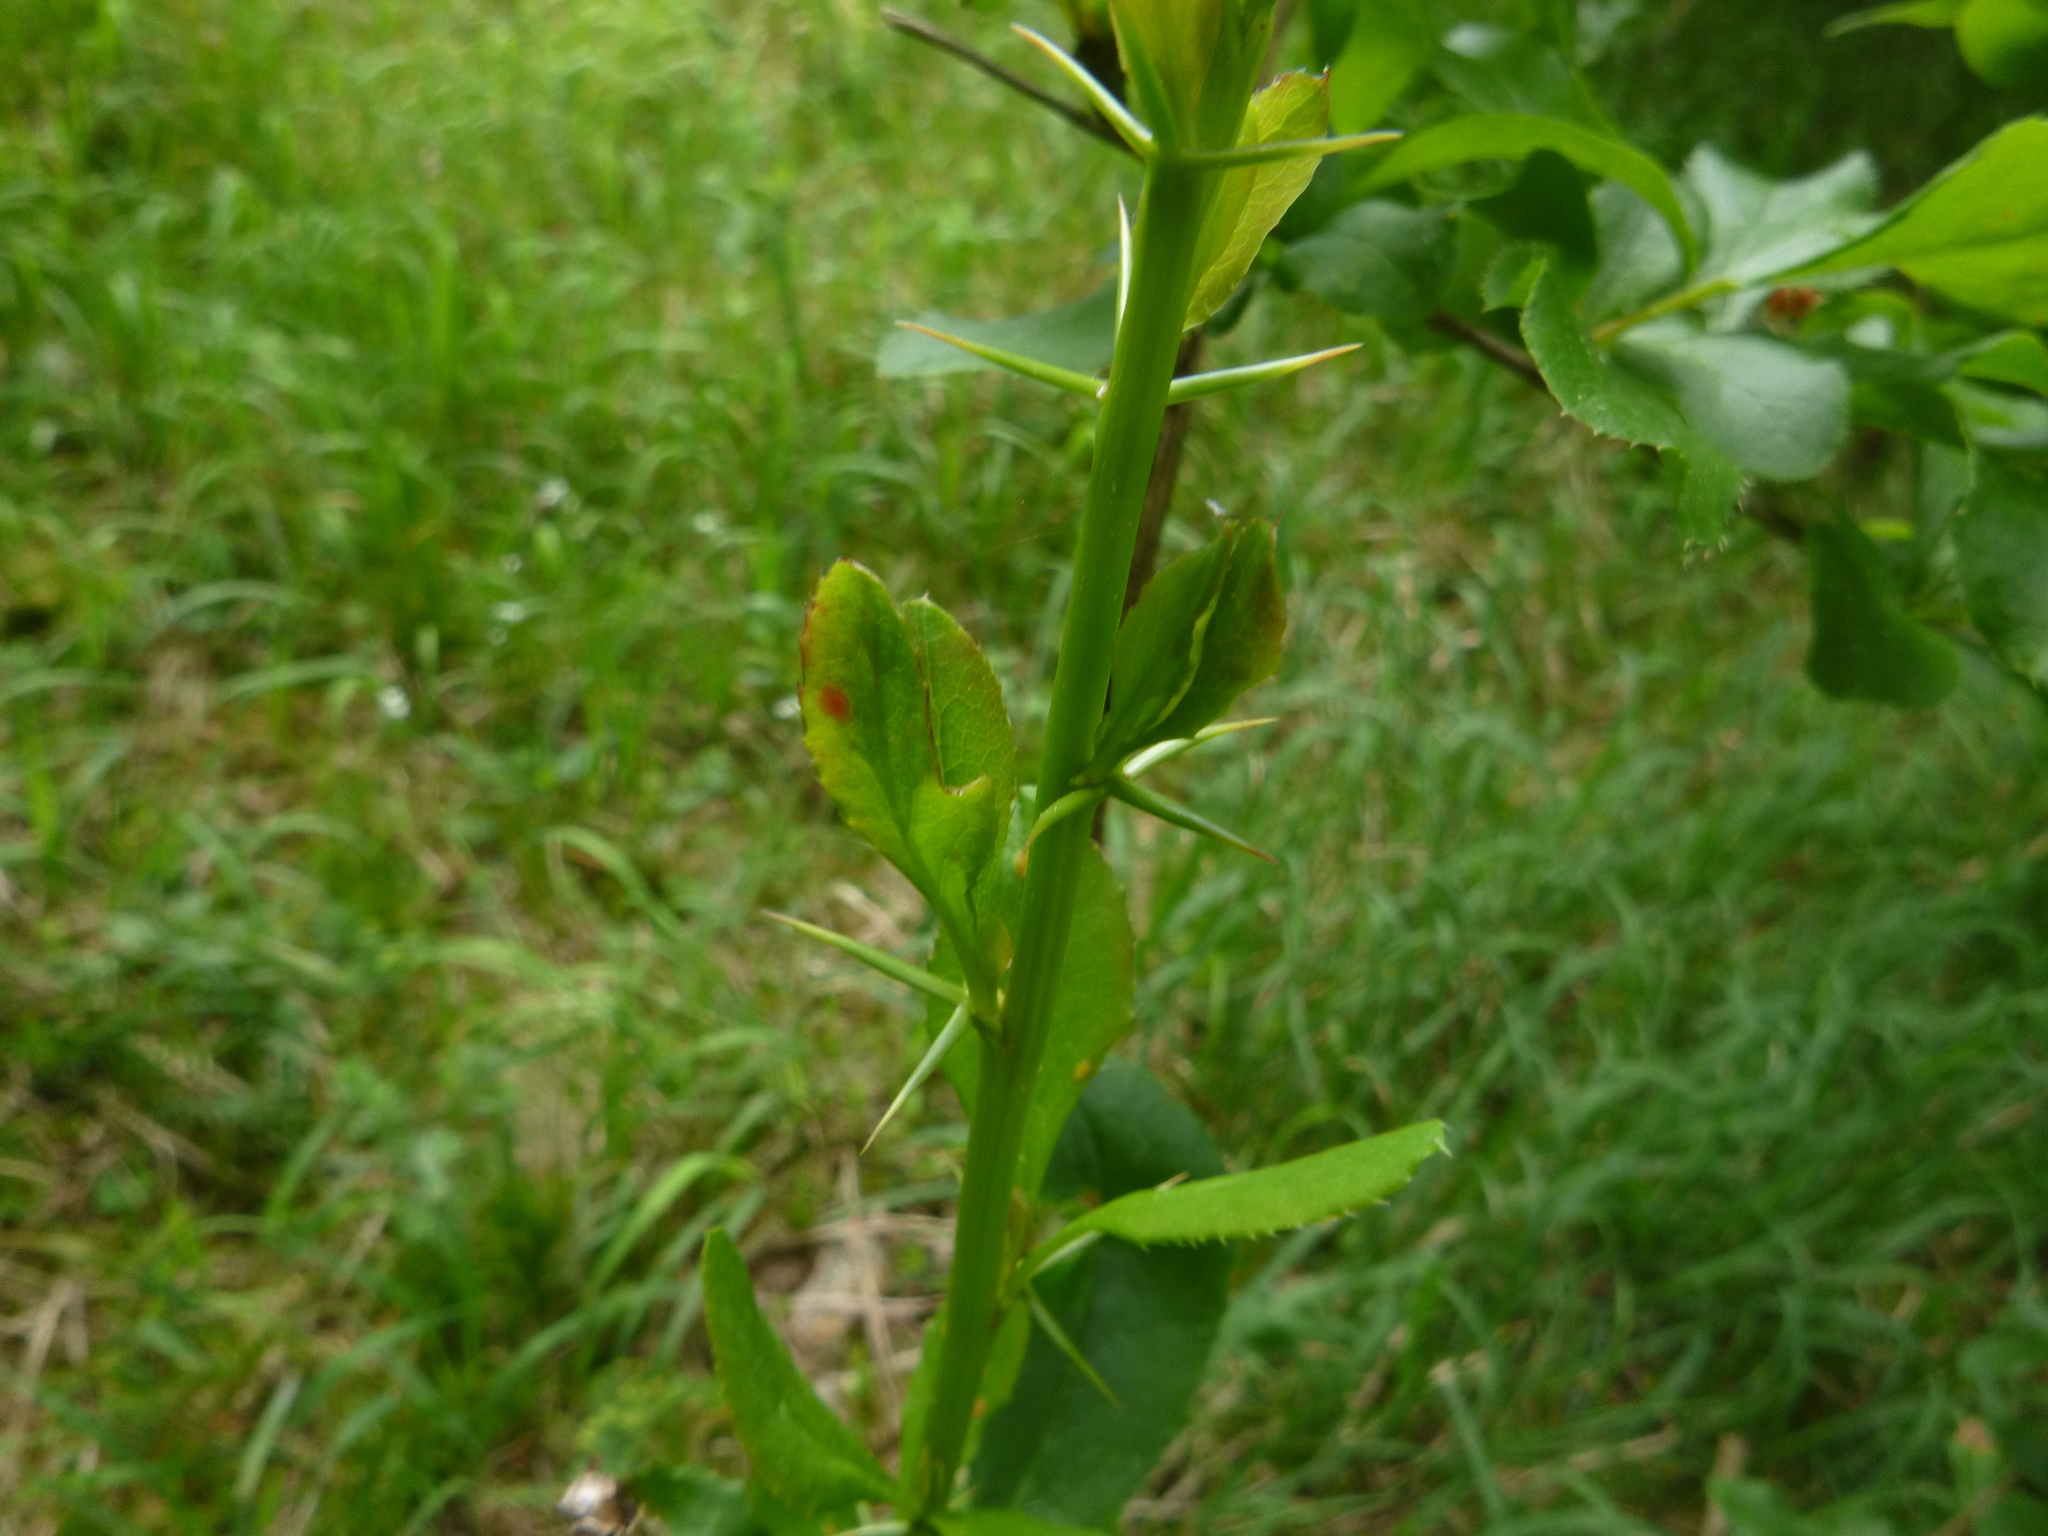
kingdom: Plantae
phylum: Tracheophyta
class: Magnoliopsida
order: Ranunculales
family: Berberidaceae
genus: Berberis
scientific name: Berberis vulgaris
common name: Barberry
